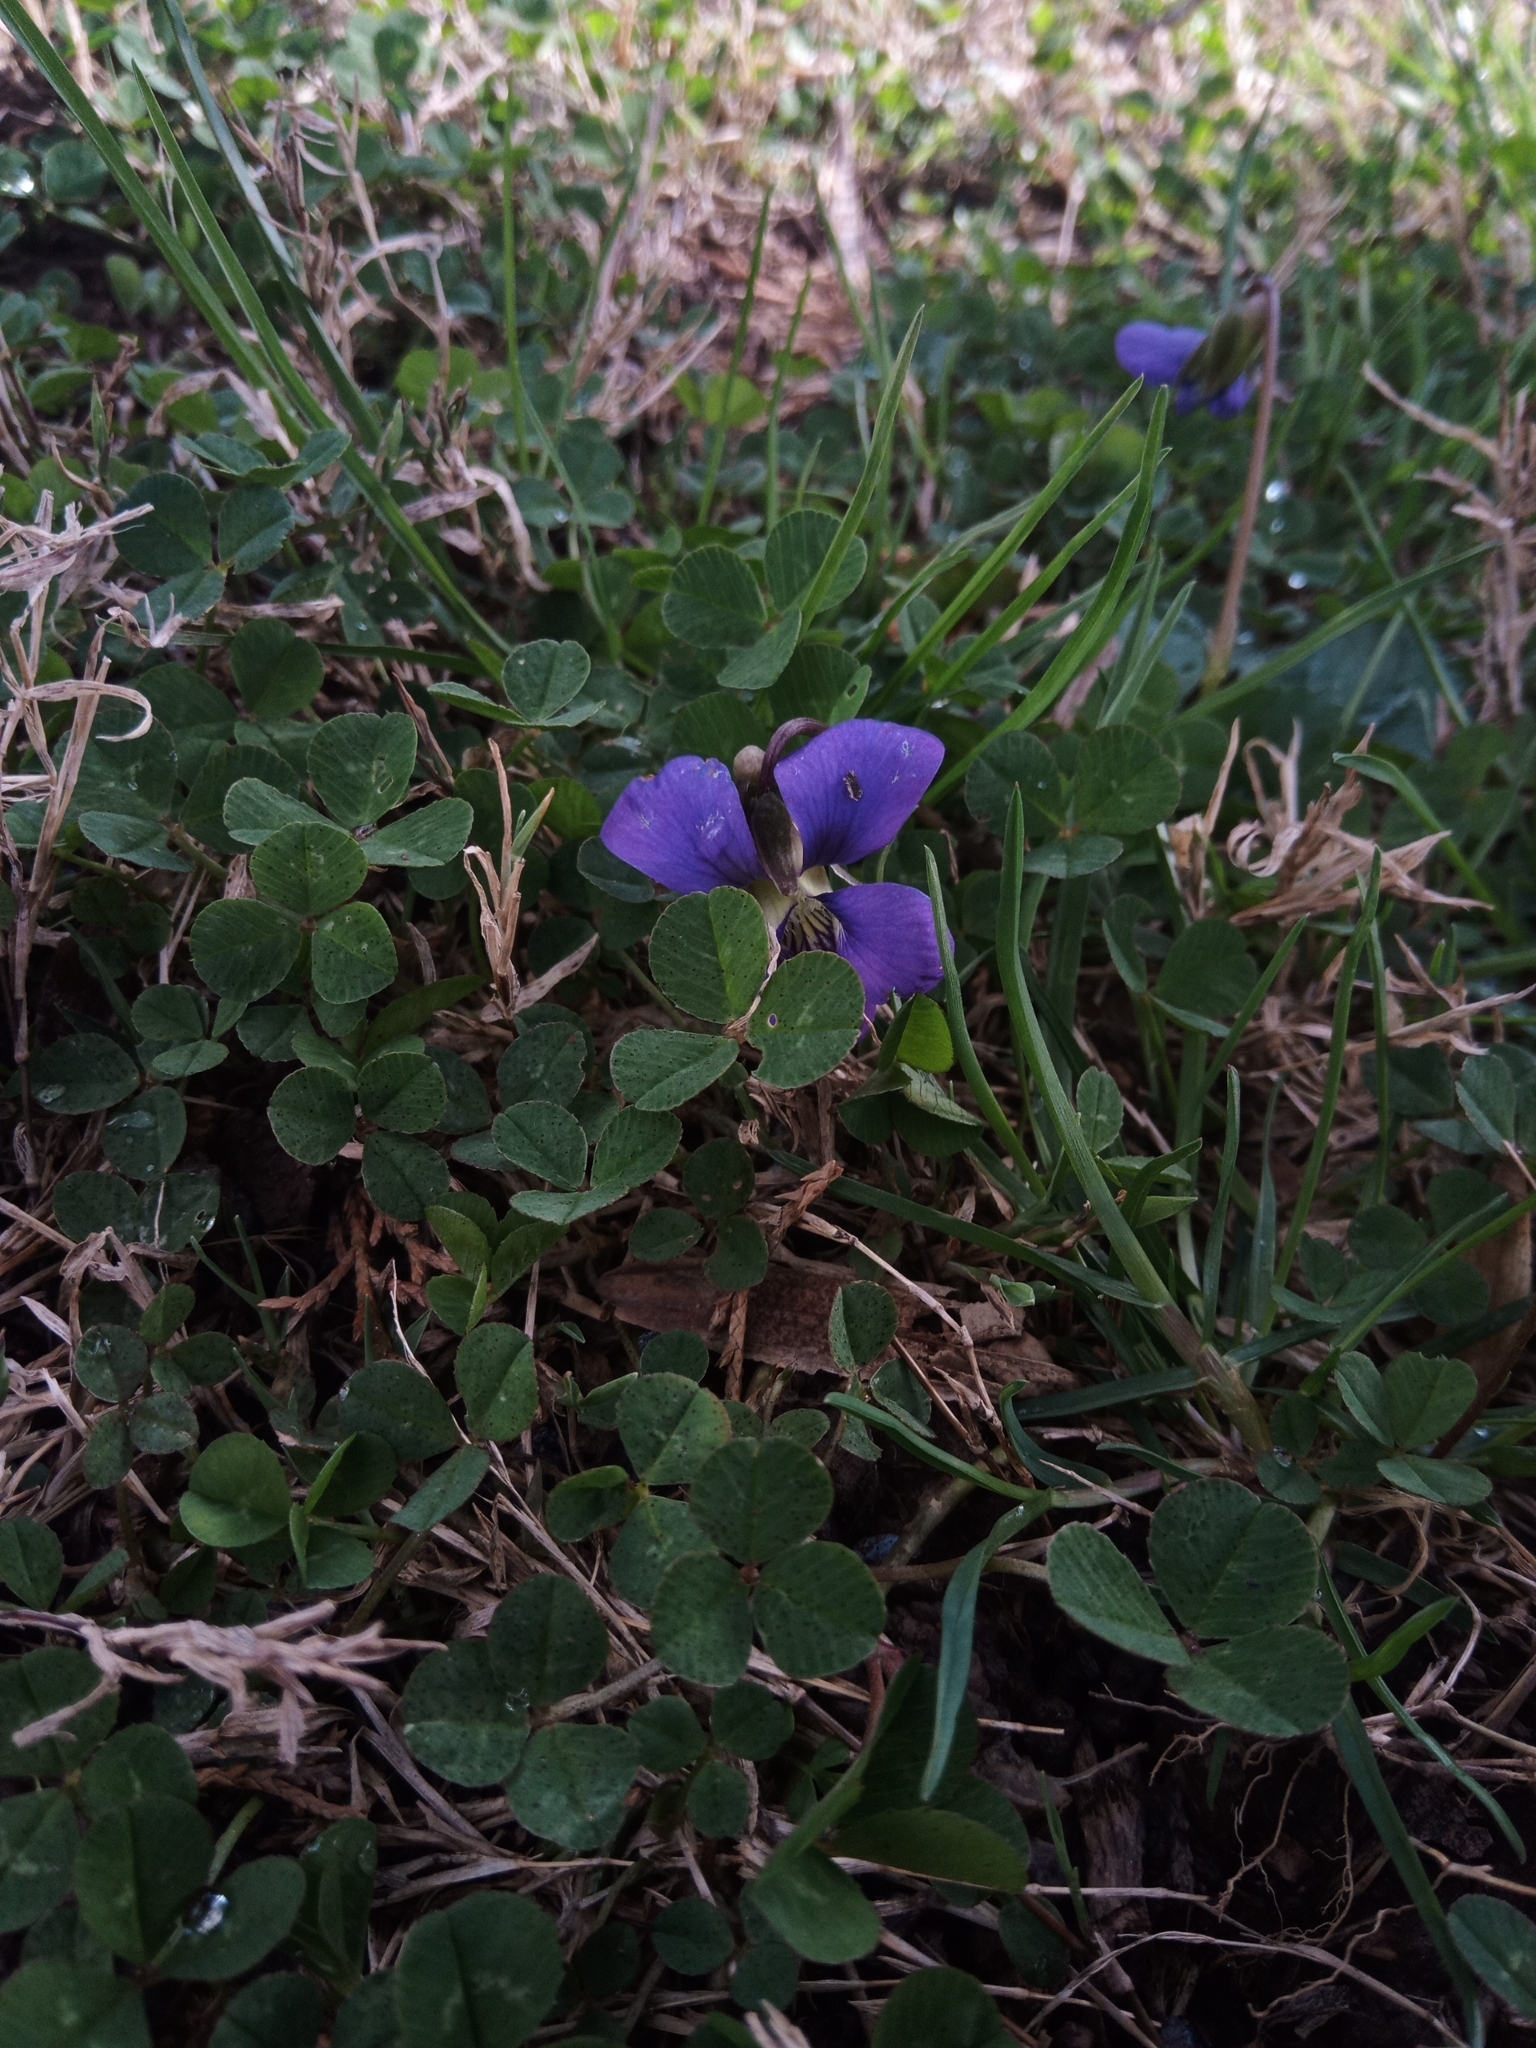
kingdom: Plantae
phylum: Tracheophyta
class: Magnoliopsida
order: Malpighiales
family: Violaceae
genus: Viola
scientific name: Viola sororia
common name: Dooryard violet
